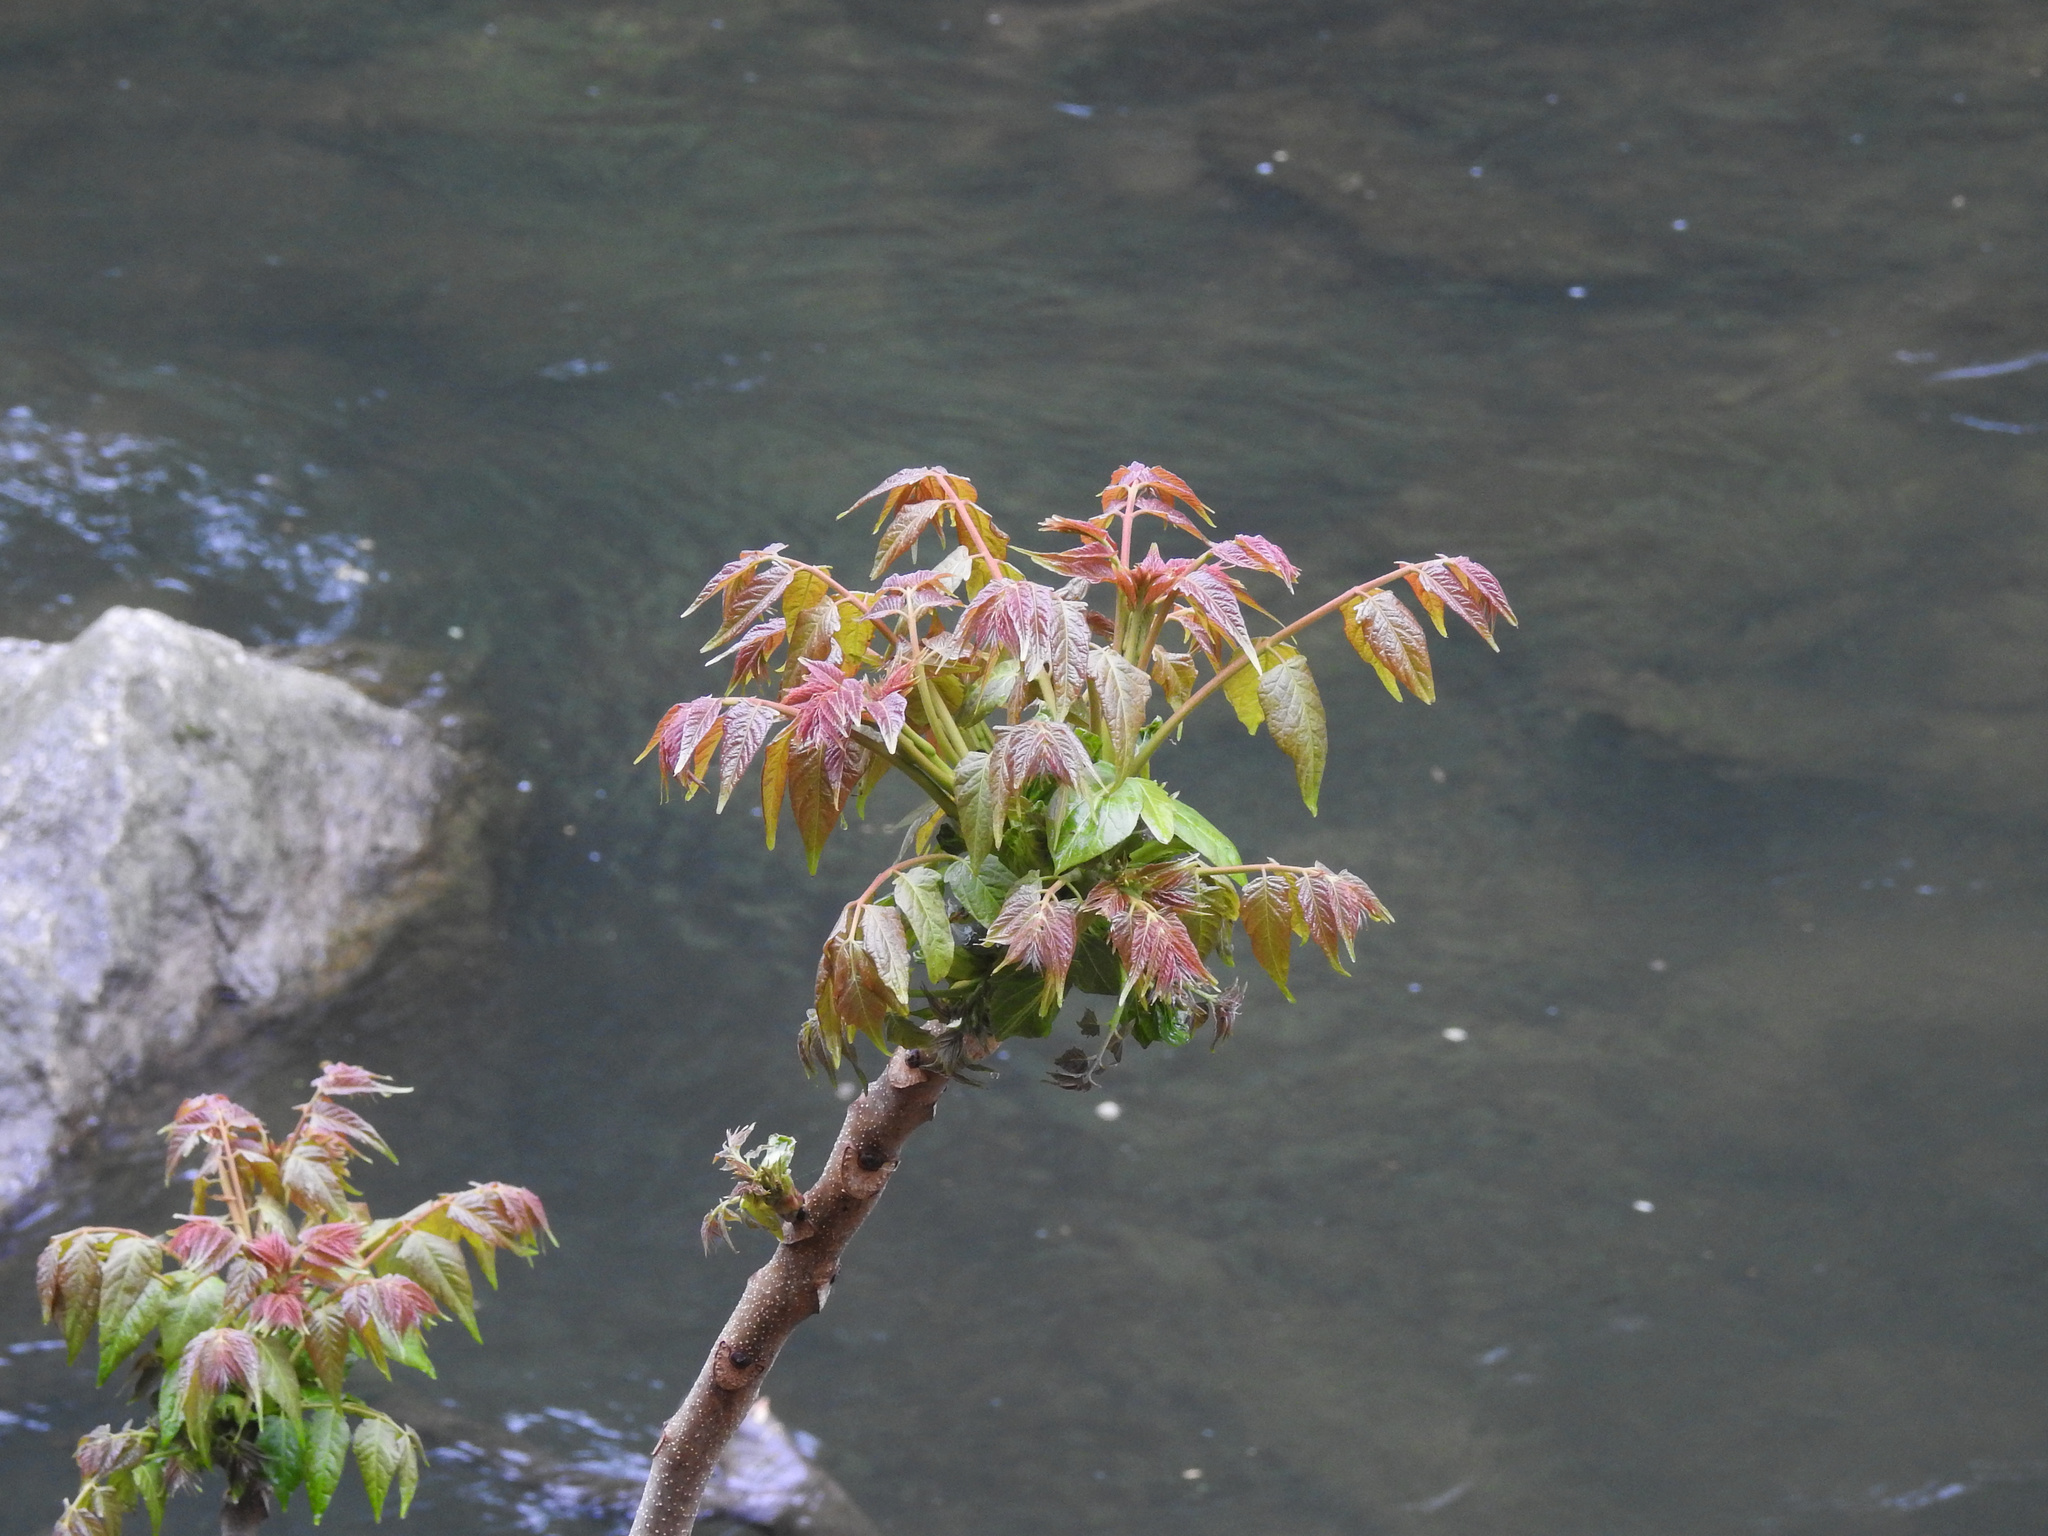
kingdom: Plantae
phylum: Tracheophyta
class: Magnoliopsida
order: Sapindales
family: Simaroubaceae
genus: Ailanthus
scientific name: Ailanthus altissima
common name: Tree-of-heaven
